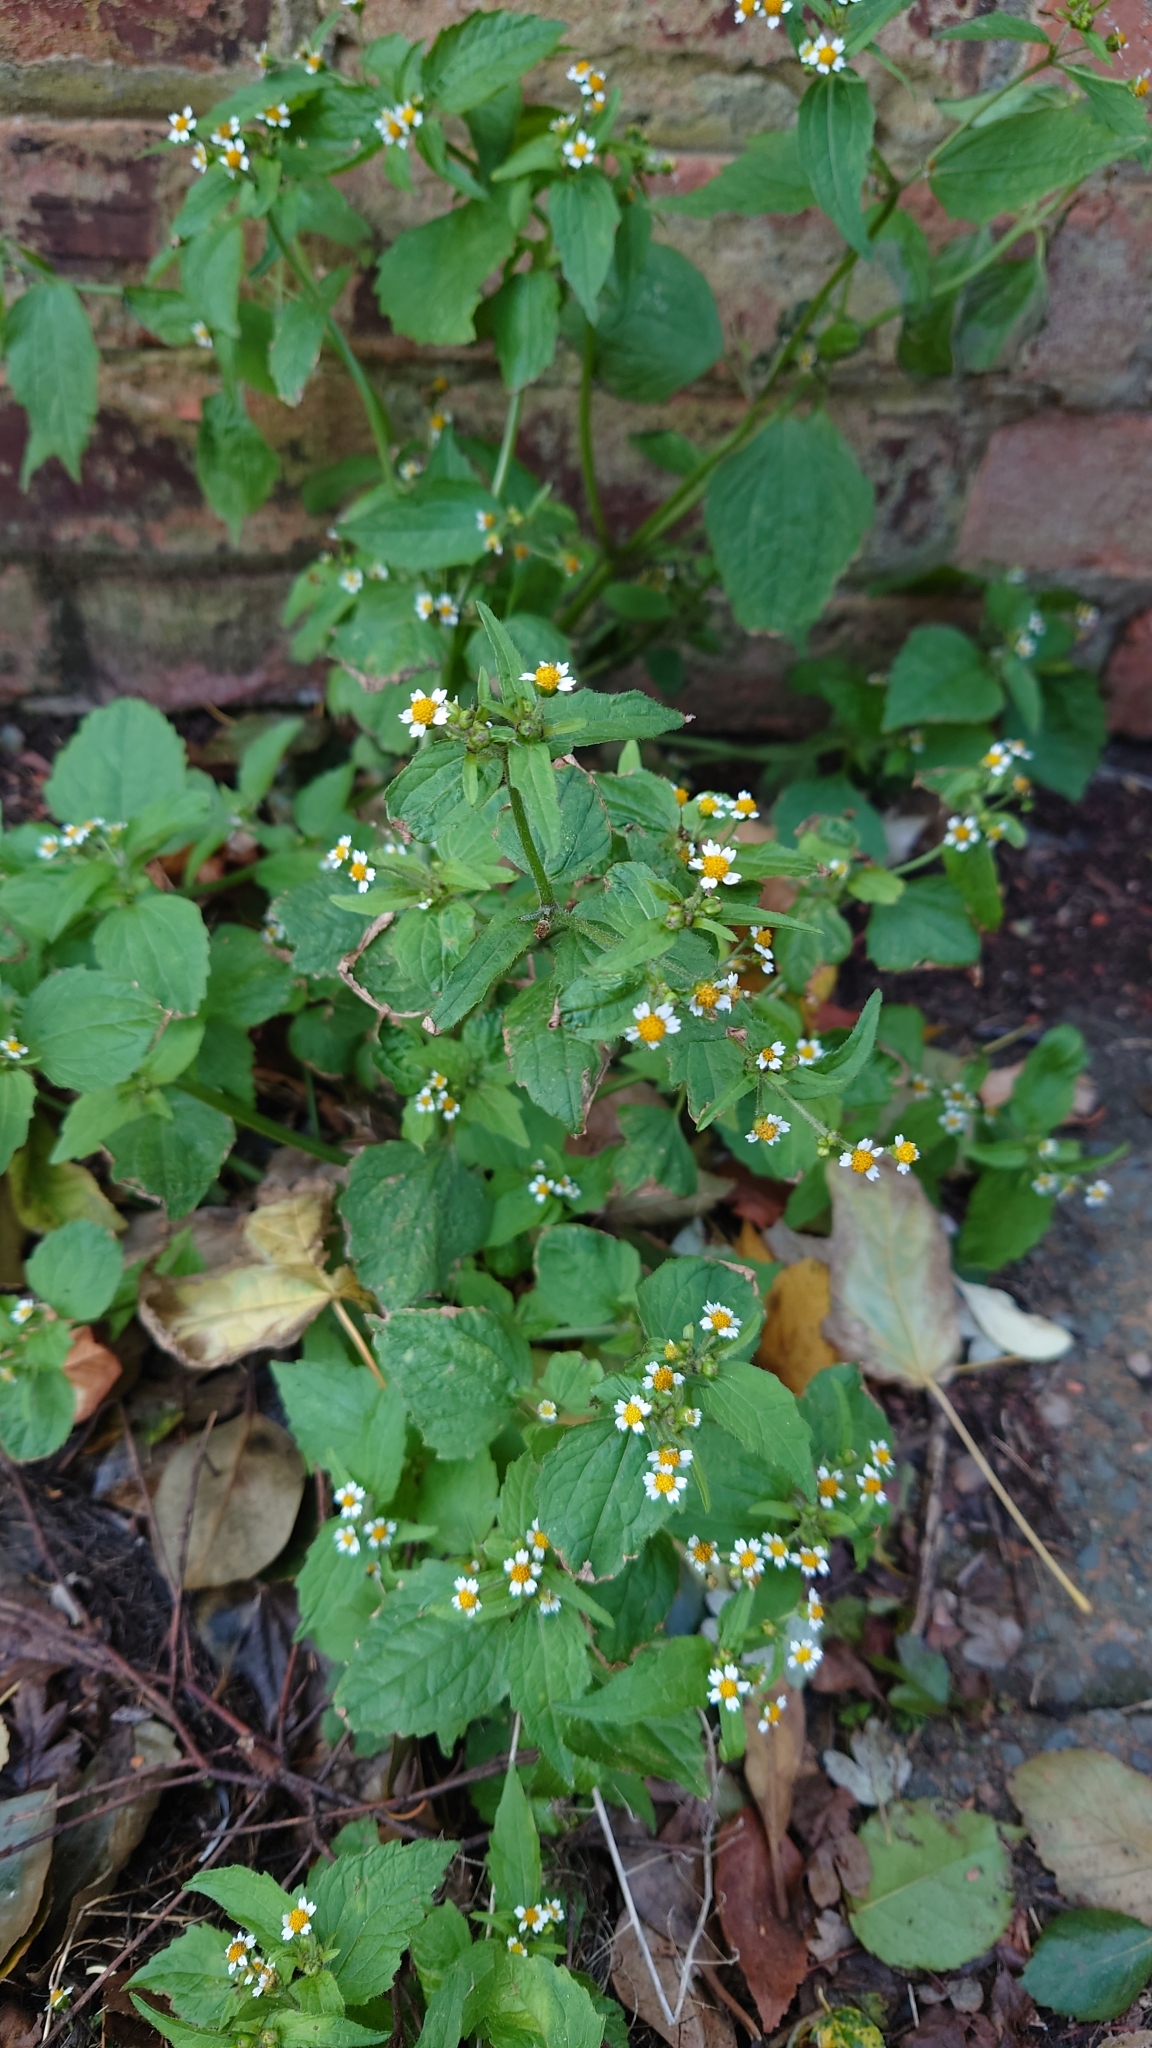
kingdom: Plantae
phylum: Tracheophyta
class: Magnoliopsida
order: Asterales
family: Asteraceae
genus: Galinsoga
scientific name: Galinsoga quadriradiata
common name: Shaggy soldier
